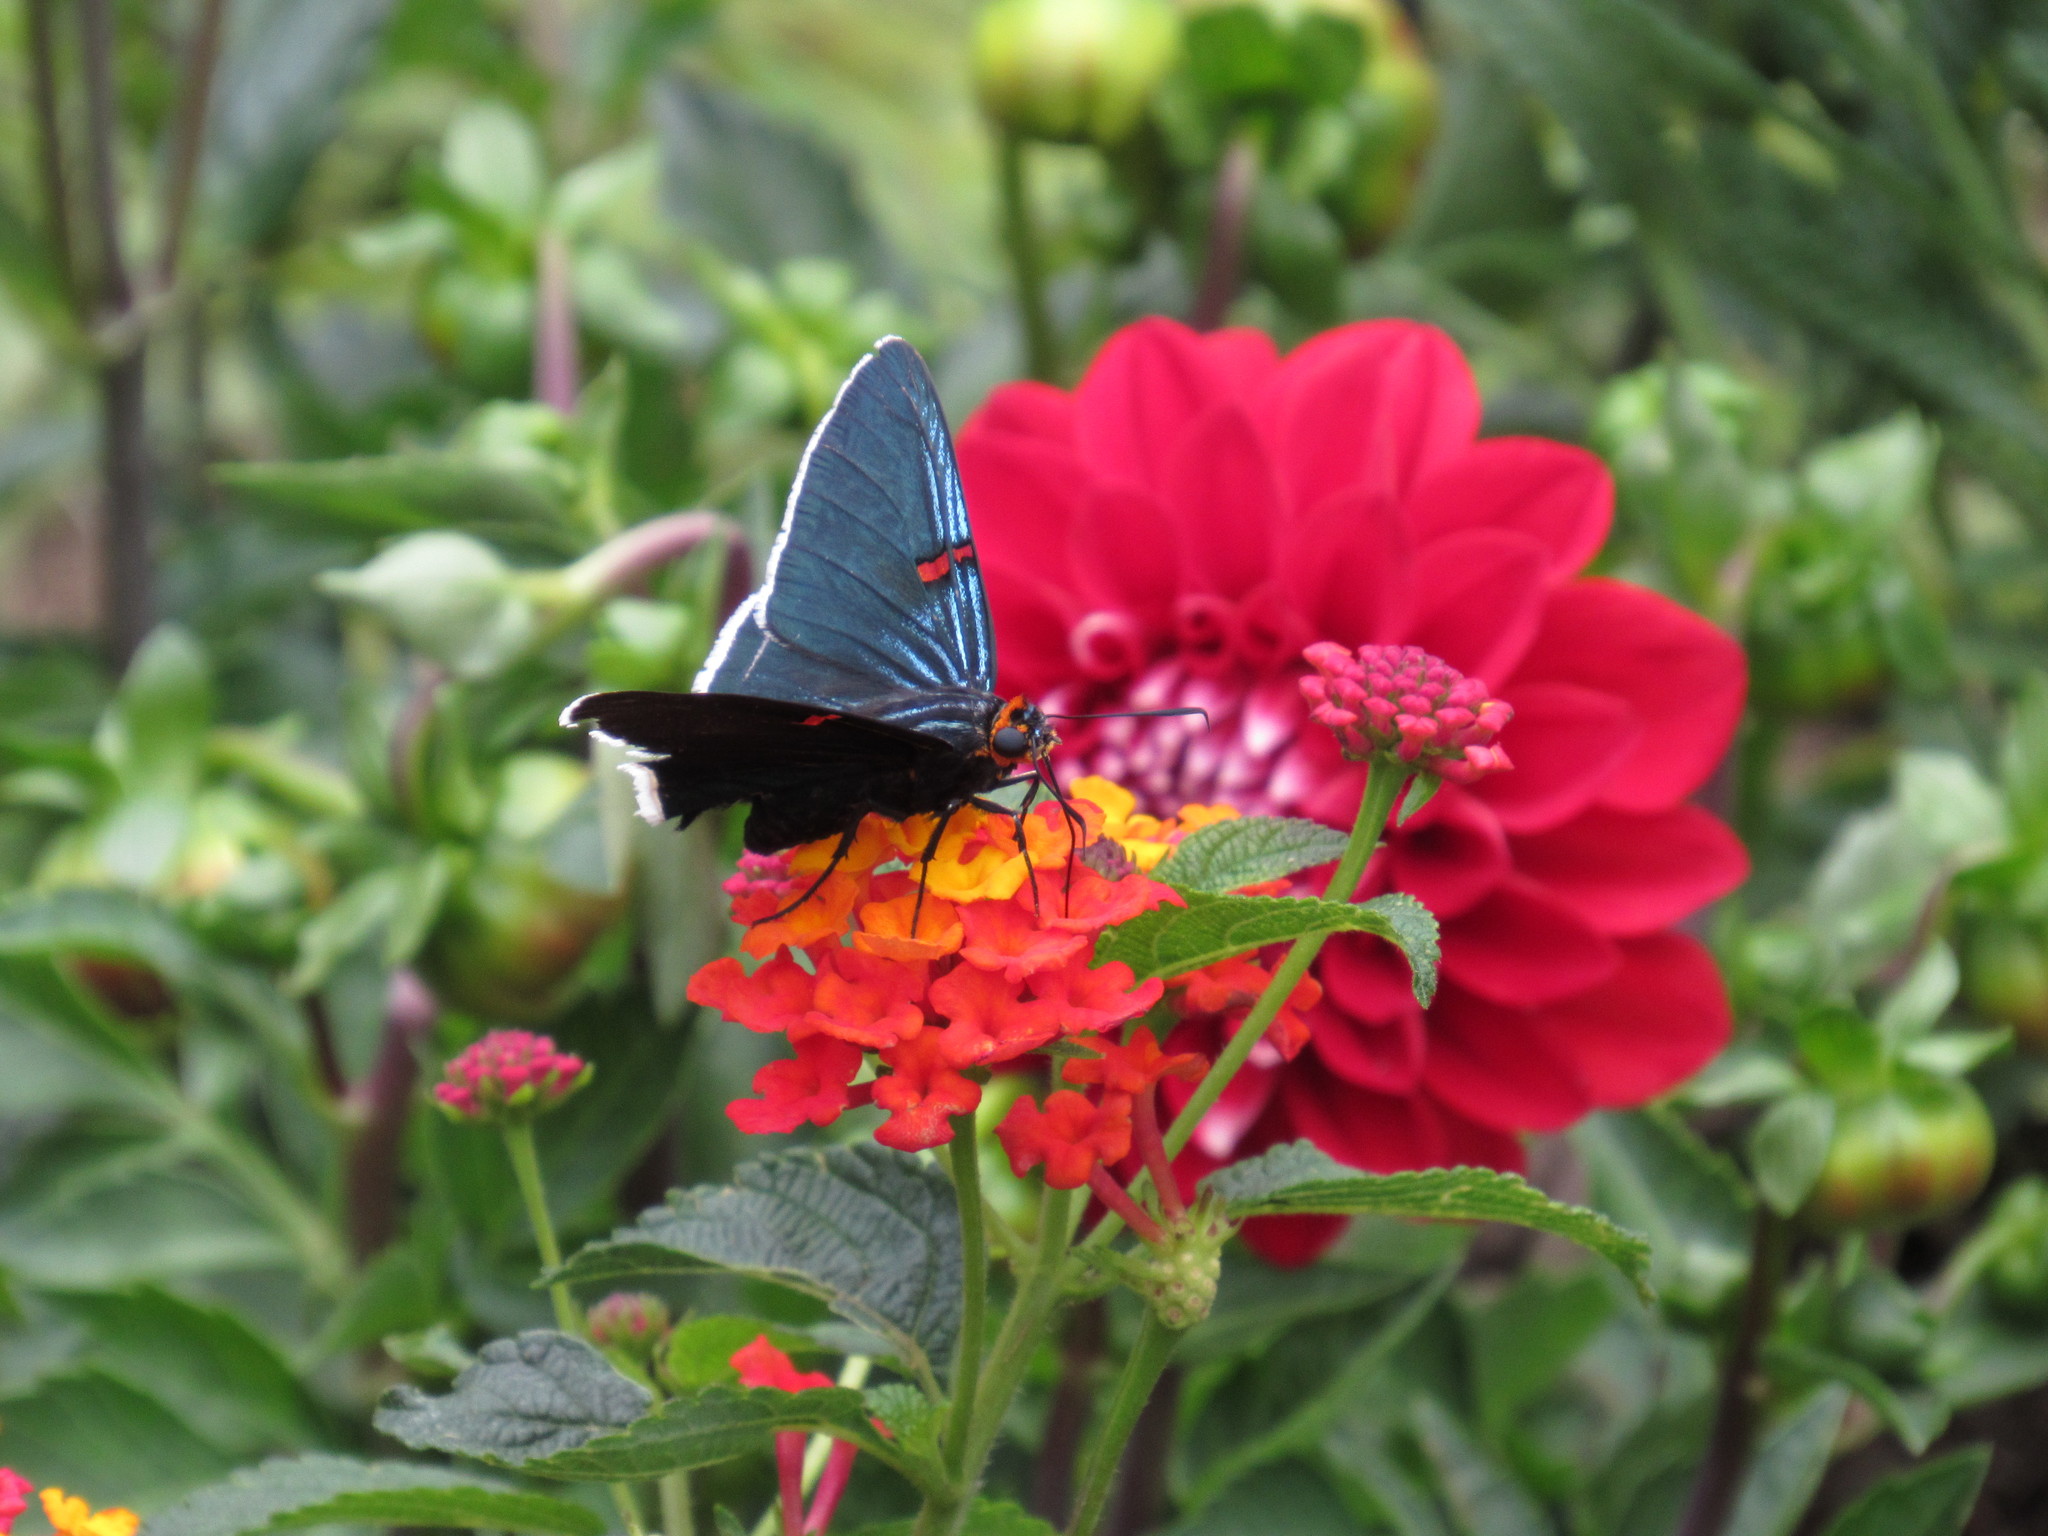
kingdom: Animalia
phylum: Arthropoda
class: Insecta
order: Lepidoptera
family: Hesperiidae
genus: Phocides
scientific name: Phocides lilea
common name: Guava skipper
